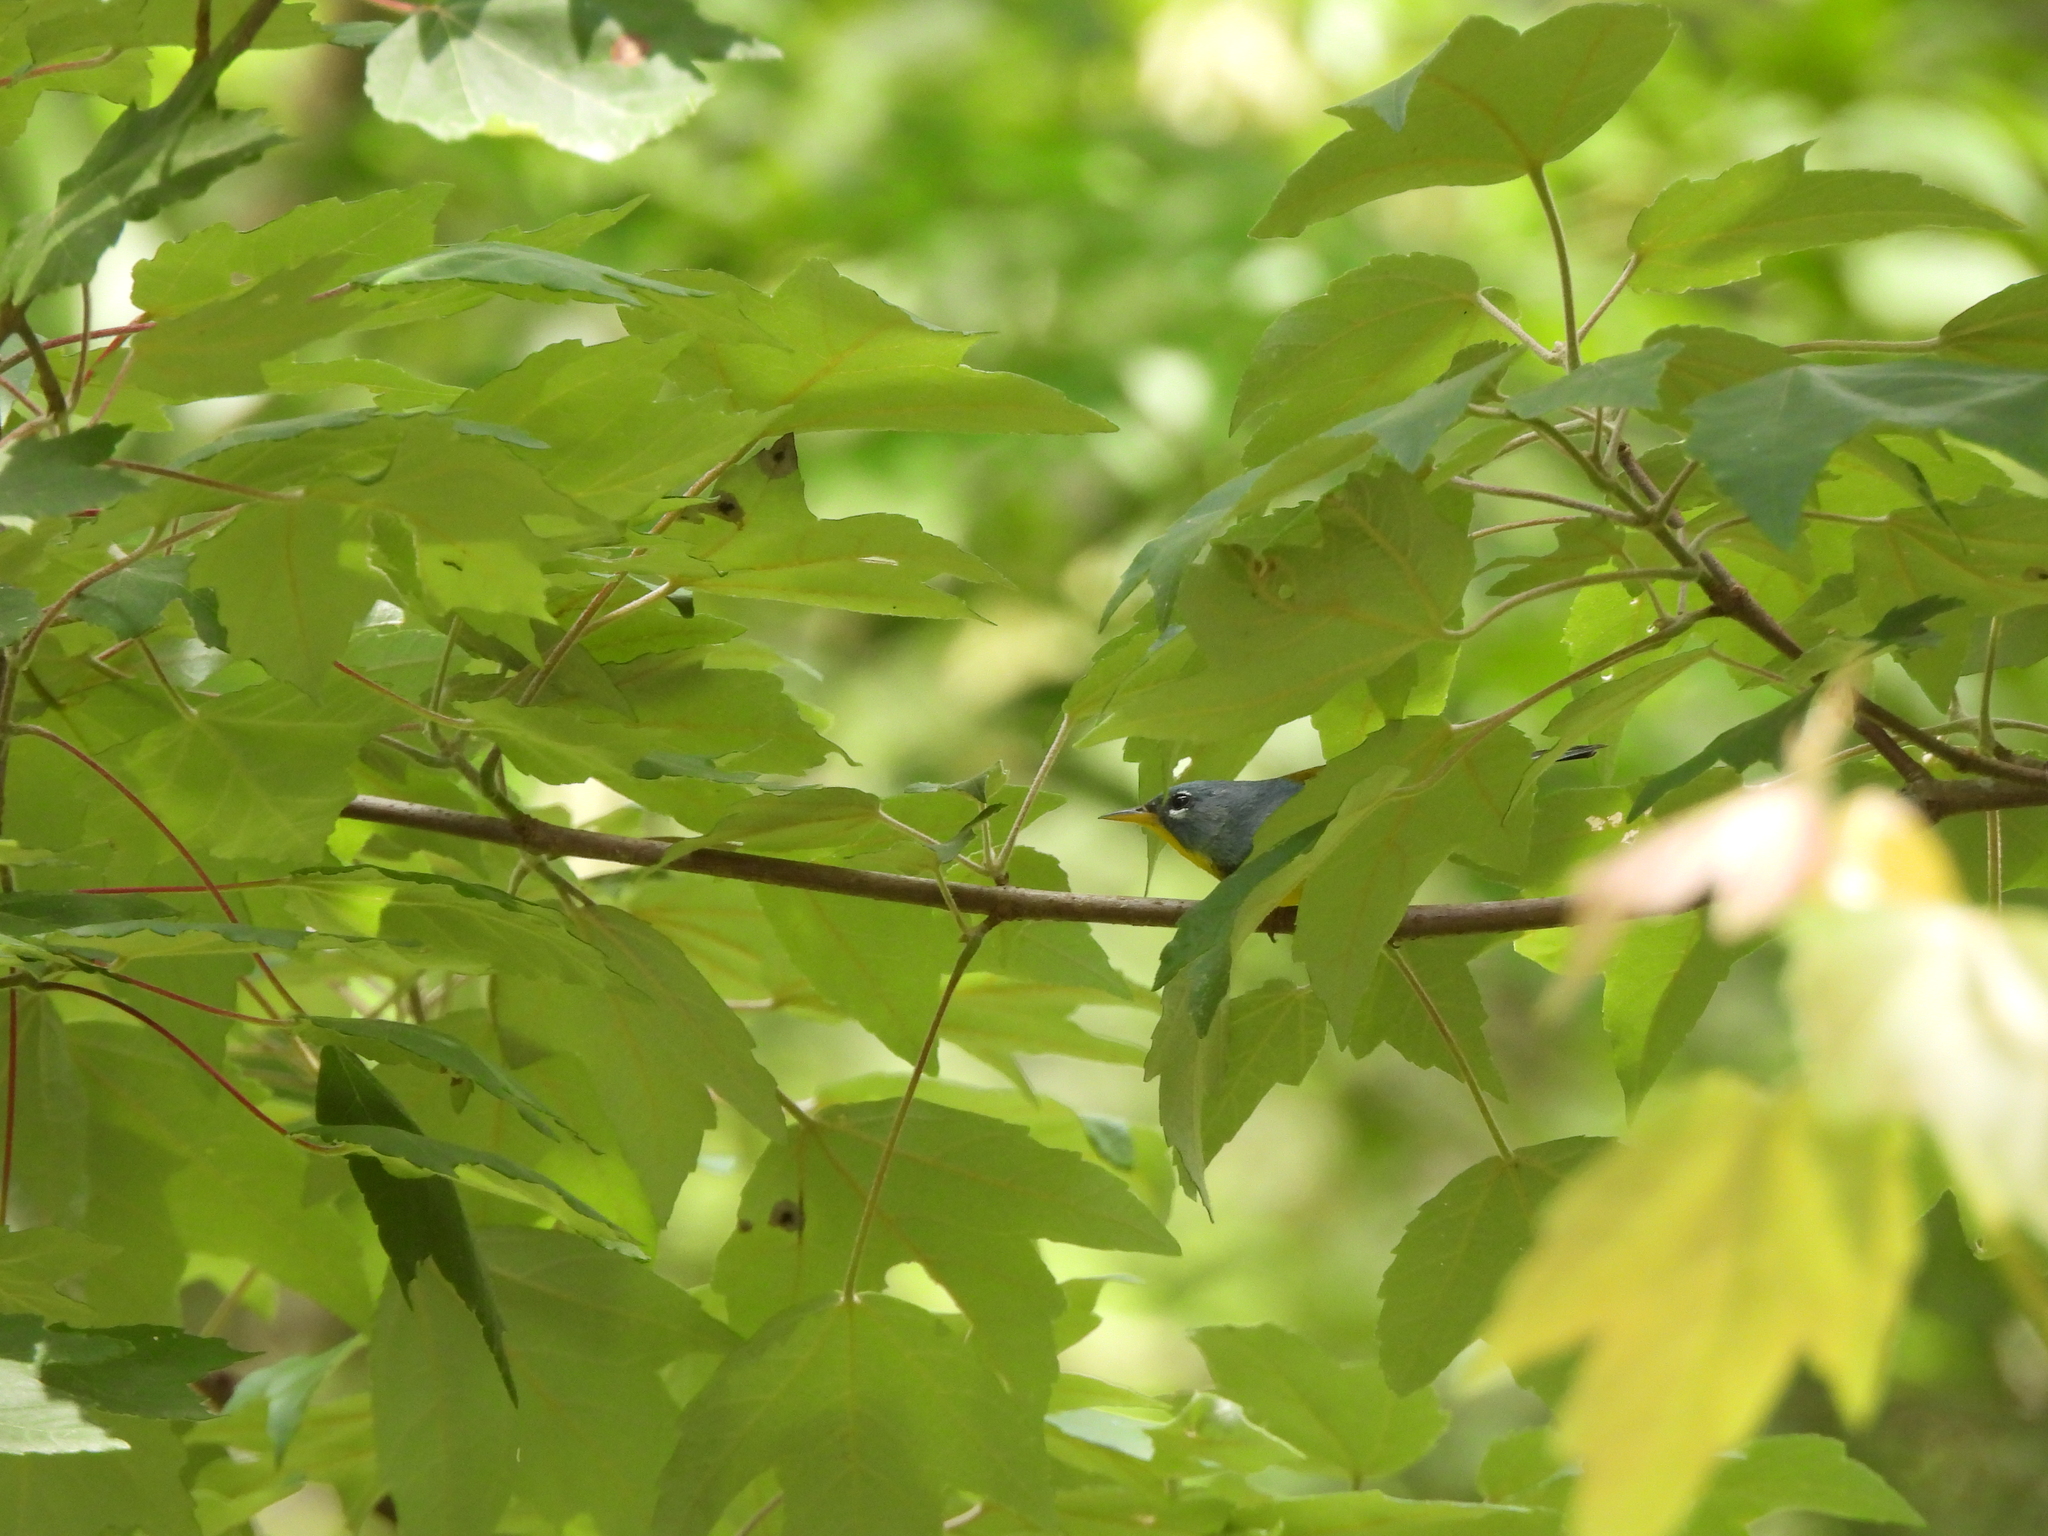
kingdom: Animalia
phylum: Chordata
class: Aves
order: Passeriformes
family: Parulidae
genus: Setophaga
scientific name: Setophaga americana
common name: Northern parula
